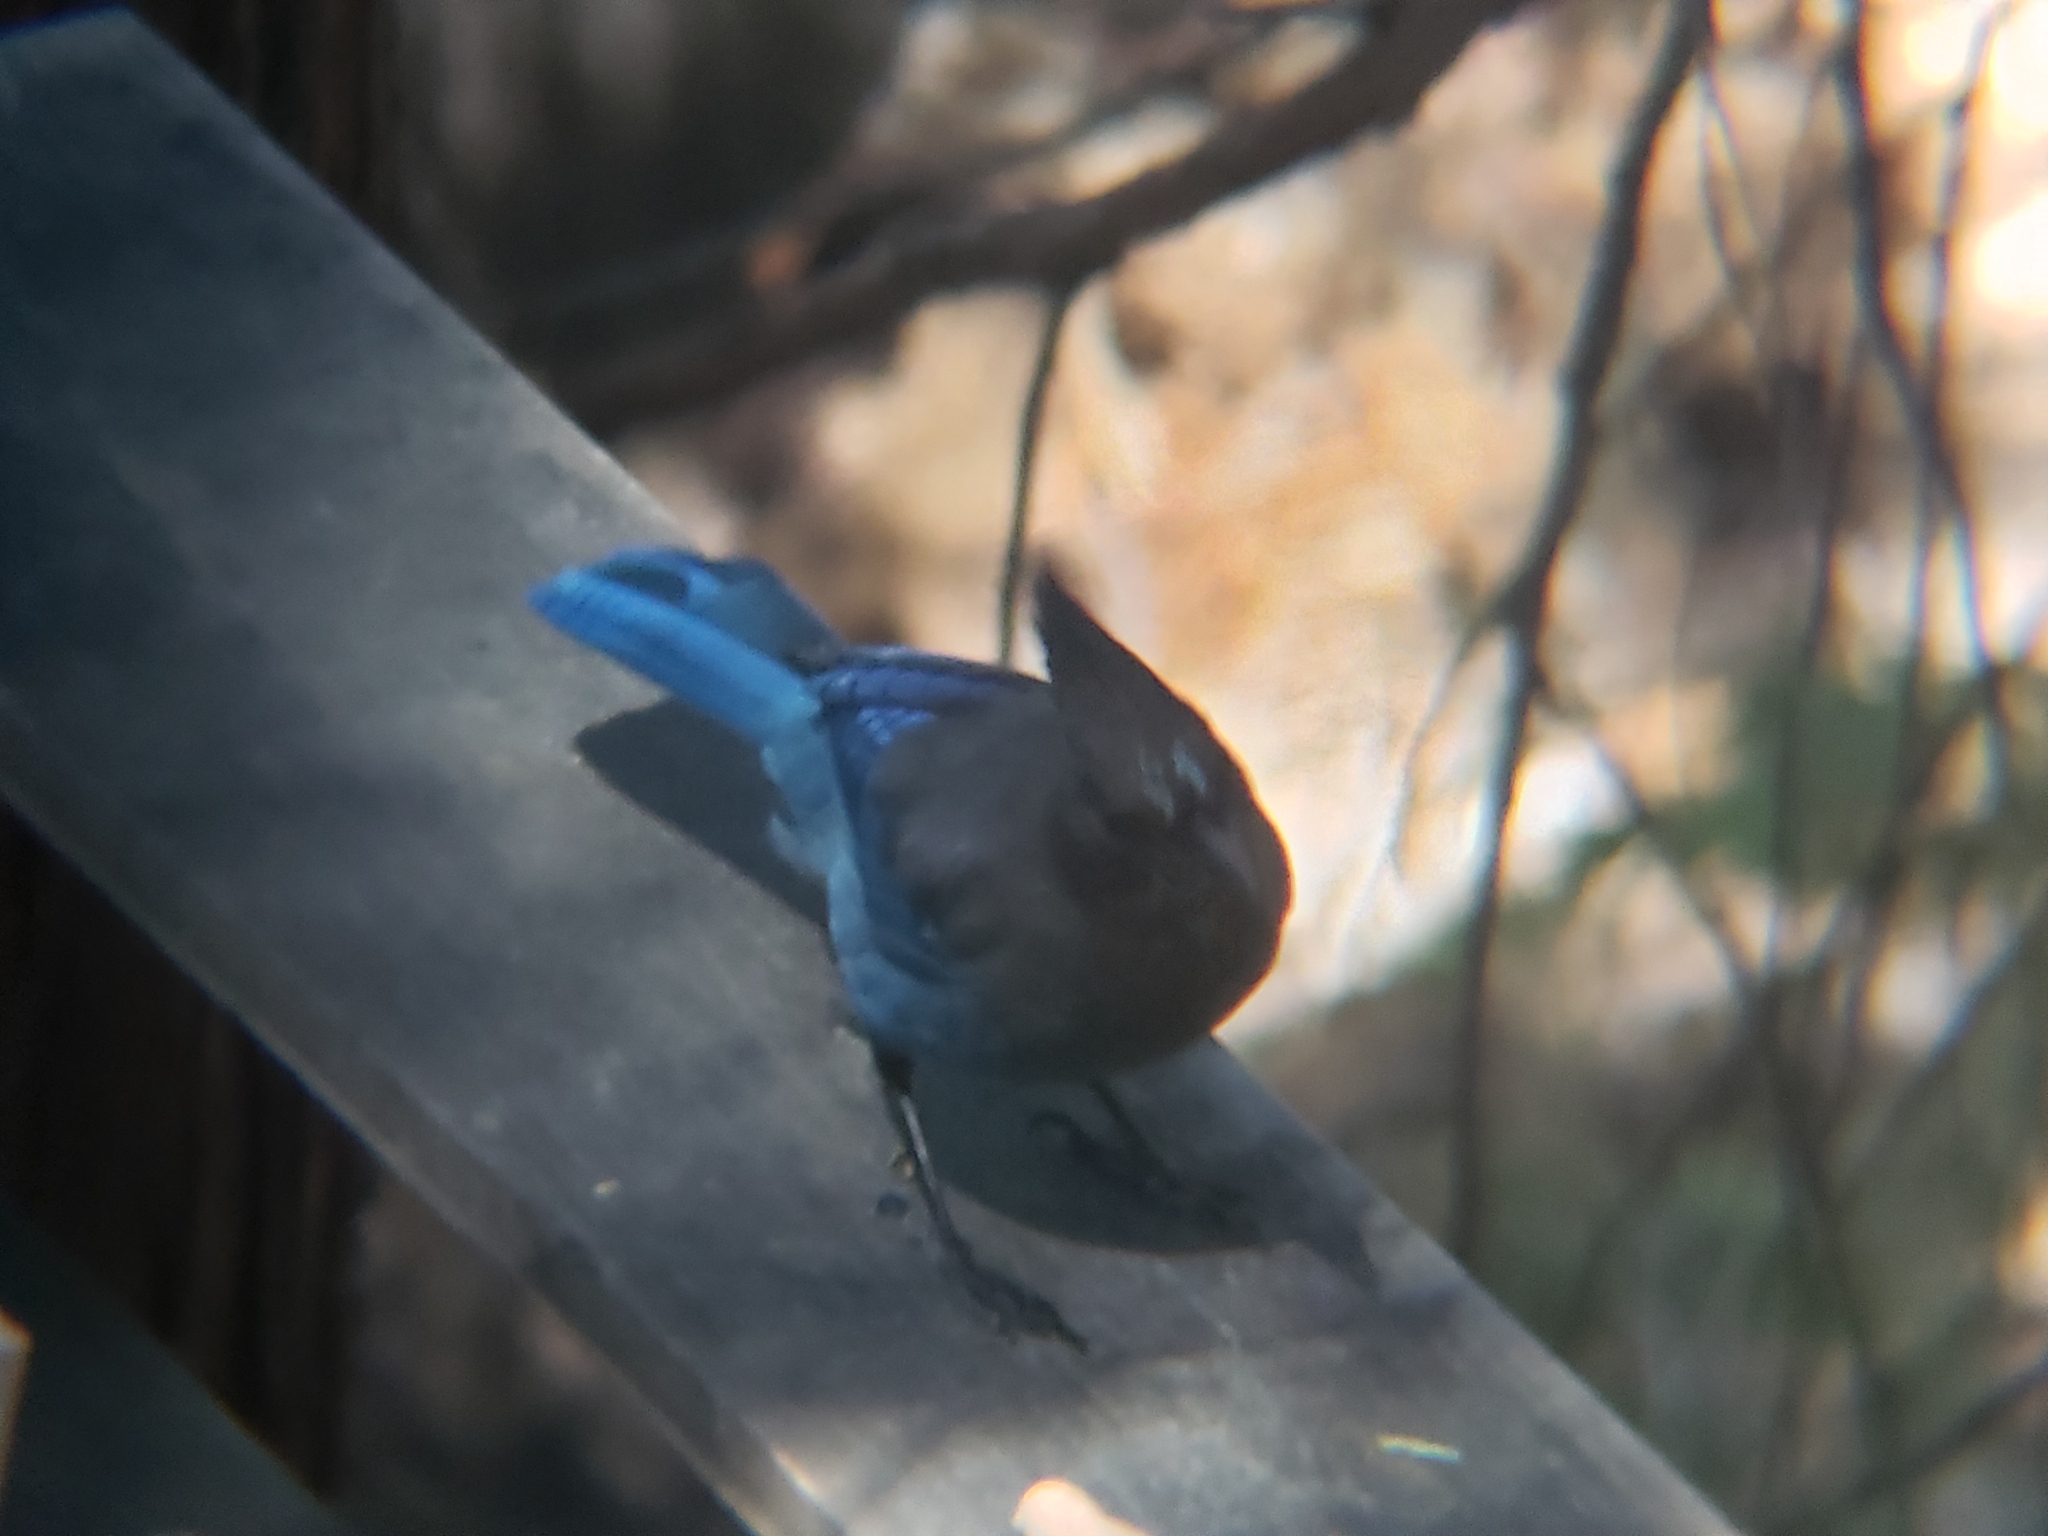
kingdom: Animalia
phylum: Chordata
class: Aves
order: Passeriformes
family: Corvidae
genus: Cyanocitta
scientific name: Cyanocitta stelleri
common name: Steller's jay
